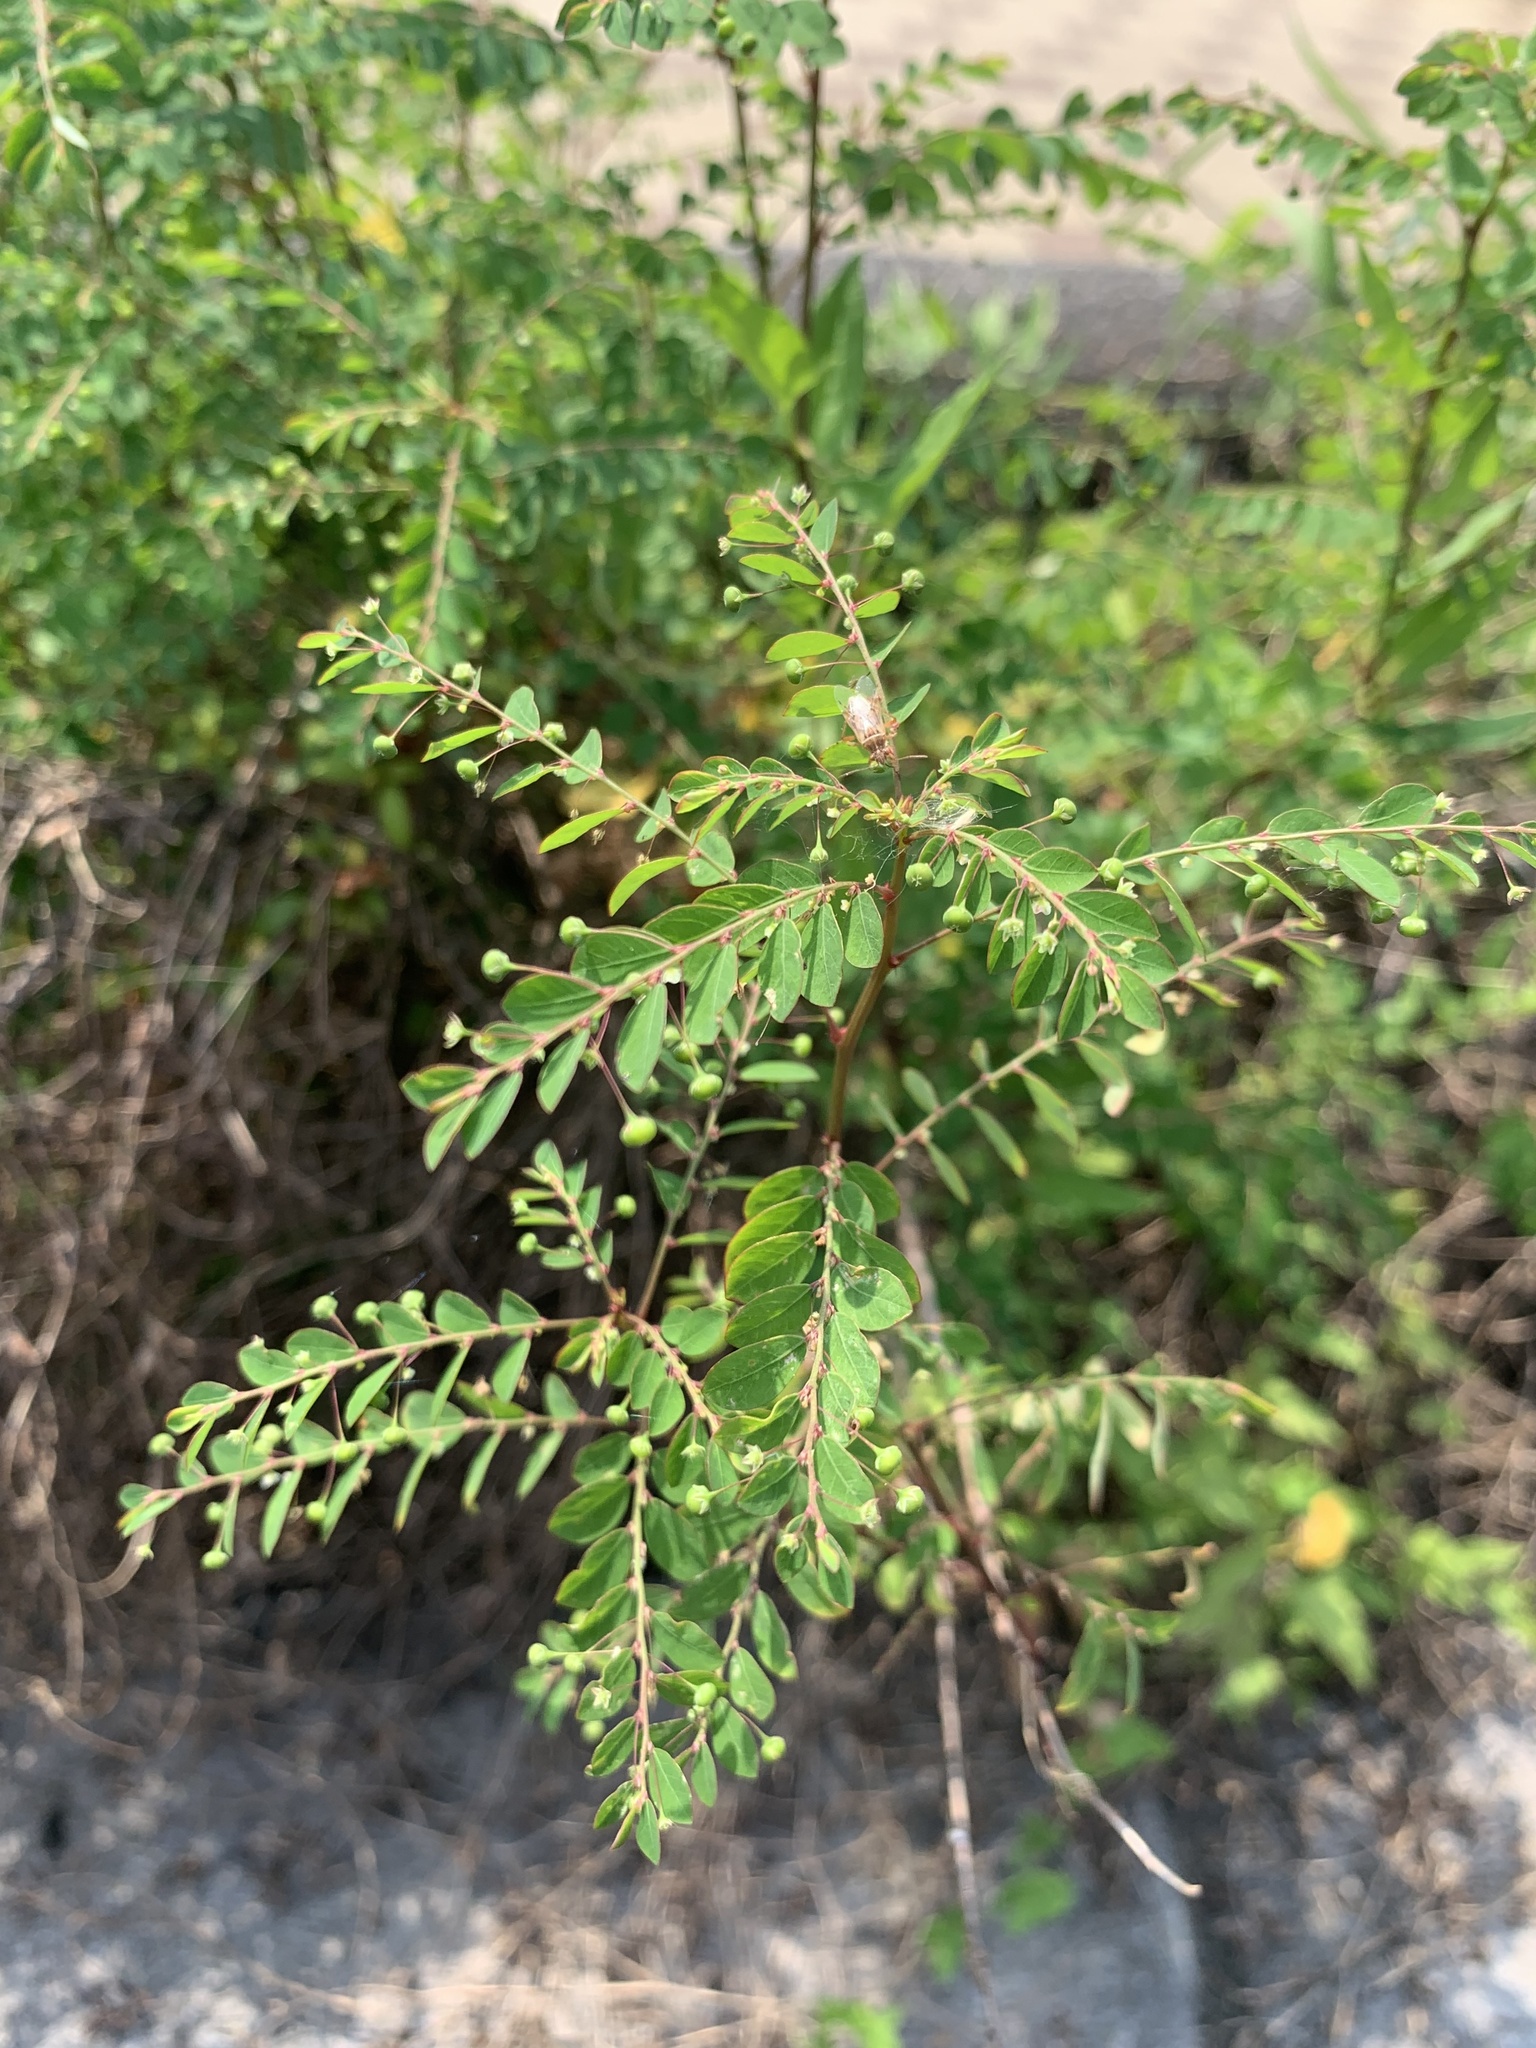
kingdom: Plantae
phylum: Tracheophyta
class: Magnoliopsida
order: Malpighiales
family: Phyllanthaceae
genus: Phyllanthus
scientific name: Phyllanthus tenellus
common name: Mascarene island leaf-flower
